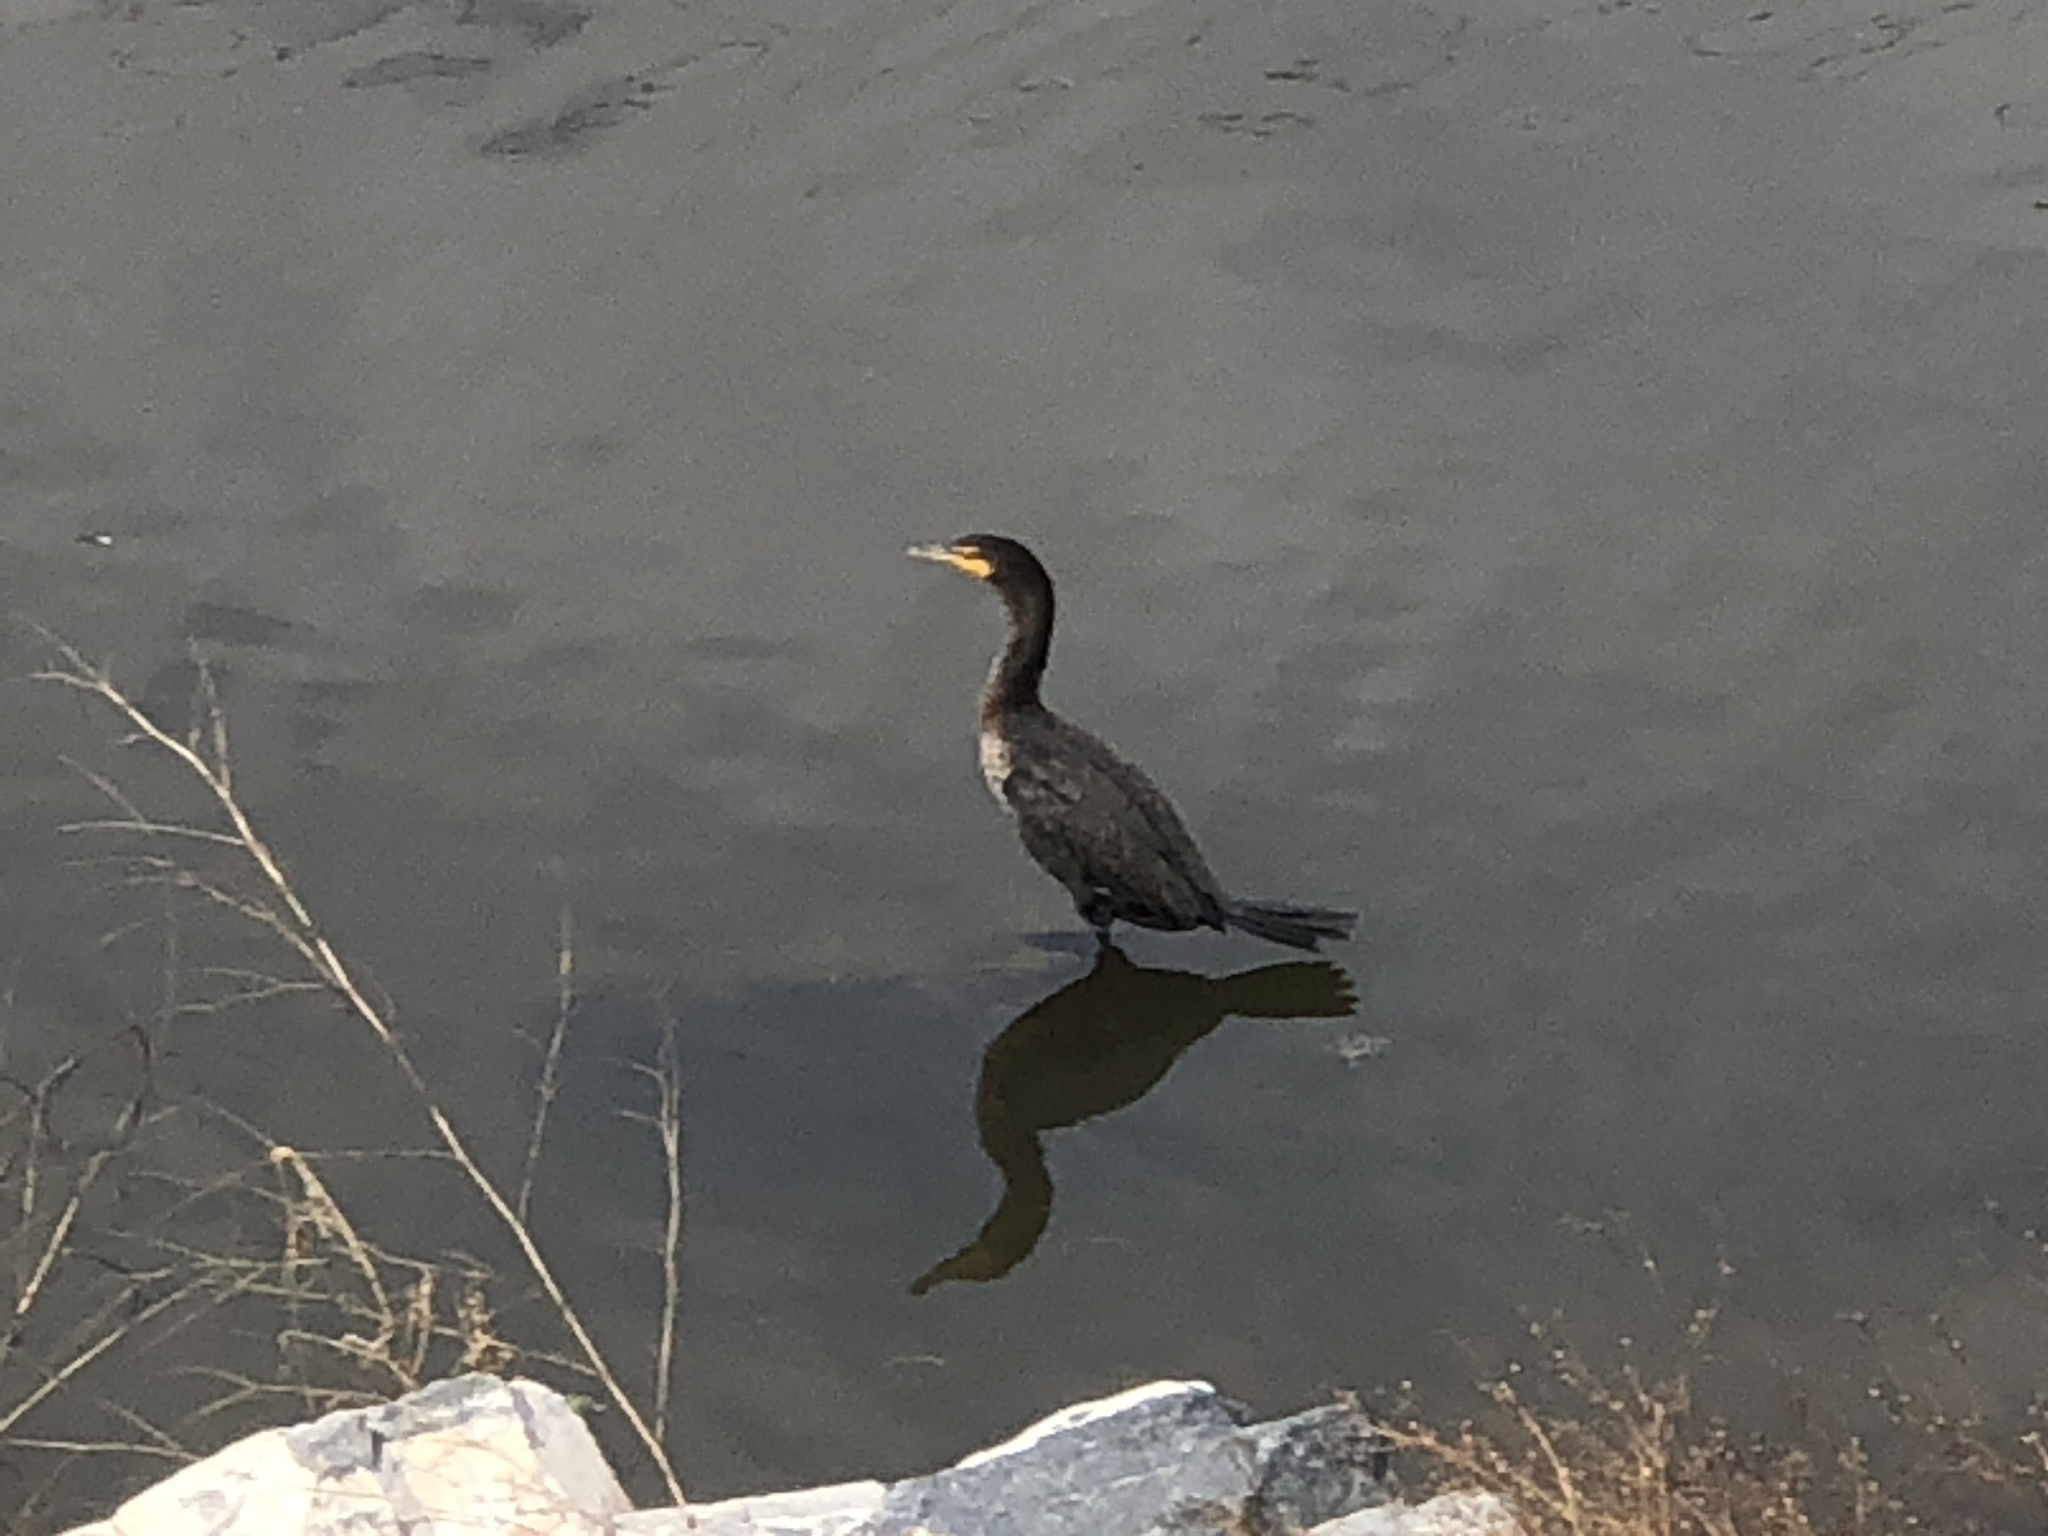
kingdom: Animalia
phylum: Chordata
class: Aves
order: Suliformes
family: Phalacrocoracidae
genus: Phalacrocorax
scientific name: Phalacrocorax auritus
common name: Double-crested cormorant
